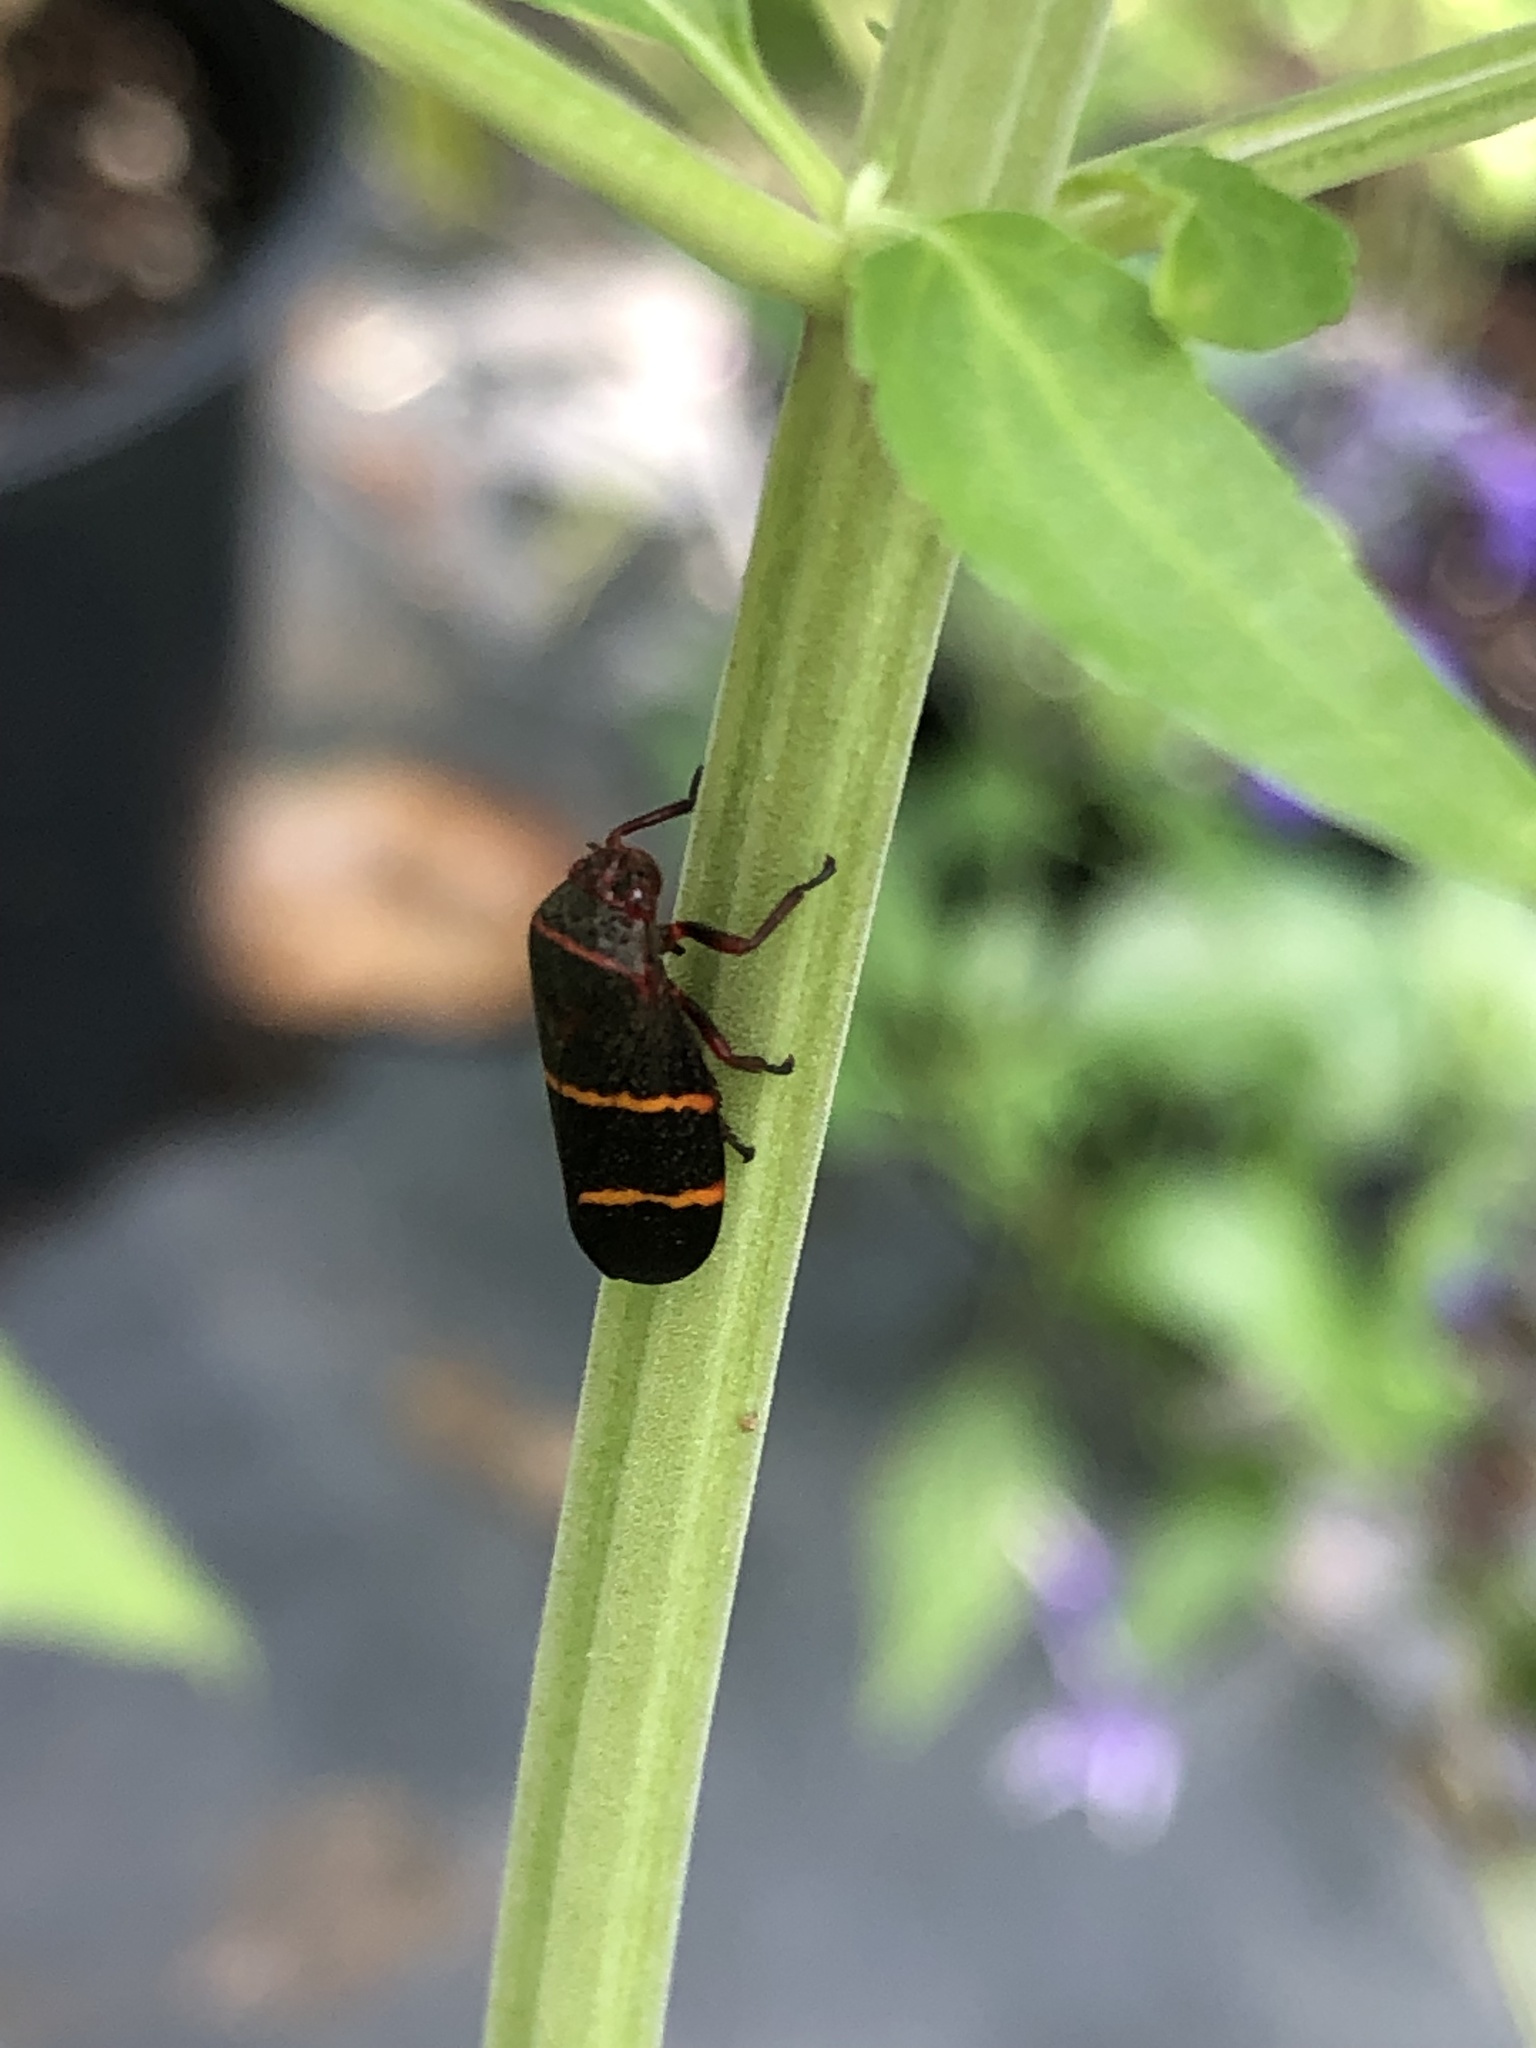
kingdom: Animalia
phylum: Arthropoda
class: Insecta
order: Hemiptera
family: Cercopidae
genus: Prosapia
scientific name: Prosapia bicincta
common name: Twolined spittlebug
